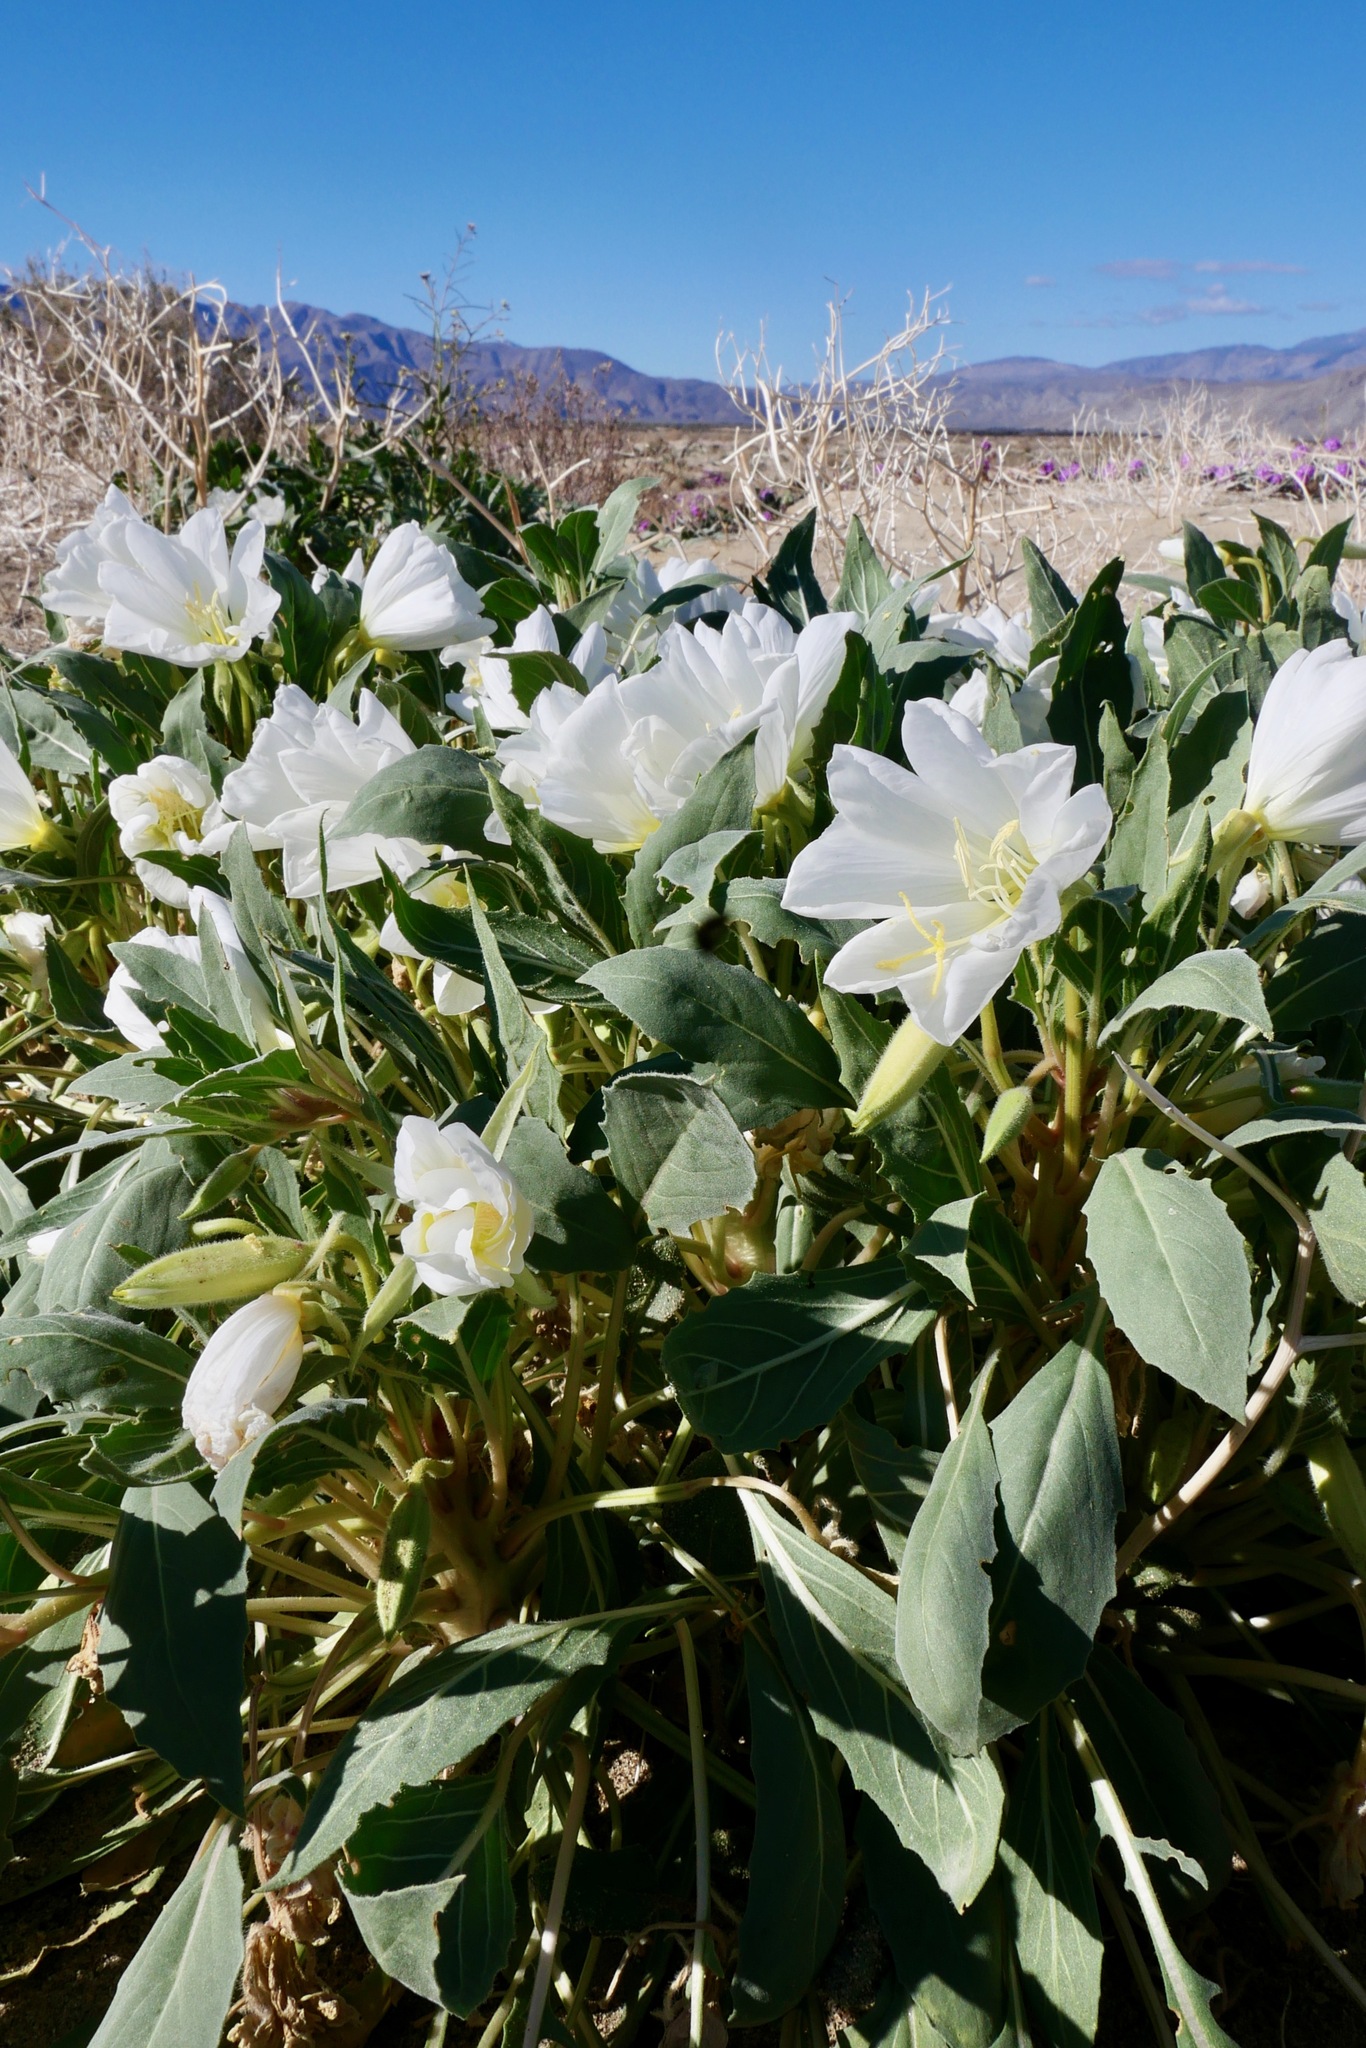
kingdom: Plantae
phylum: Tracheophyta
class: Magnoliopsida
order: Myrtales
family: Onagraceae
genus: Oenothera
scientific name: Oenothera deltoides
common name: Basket evening-primrose
